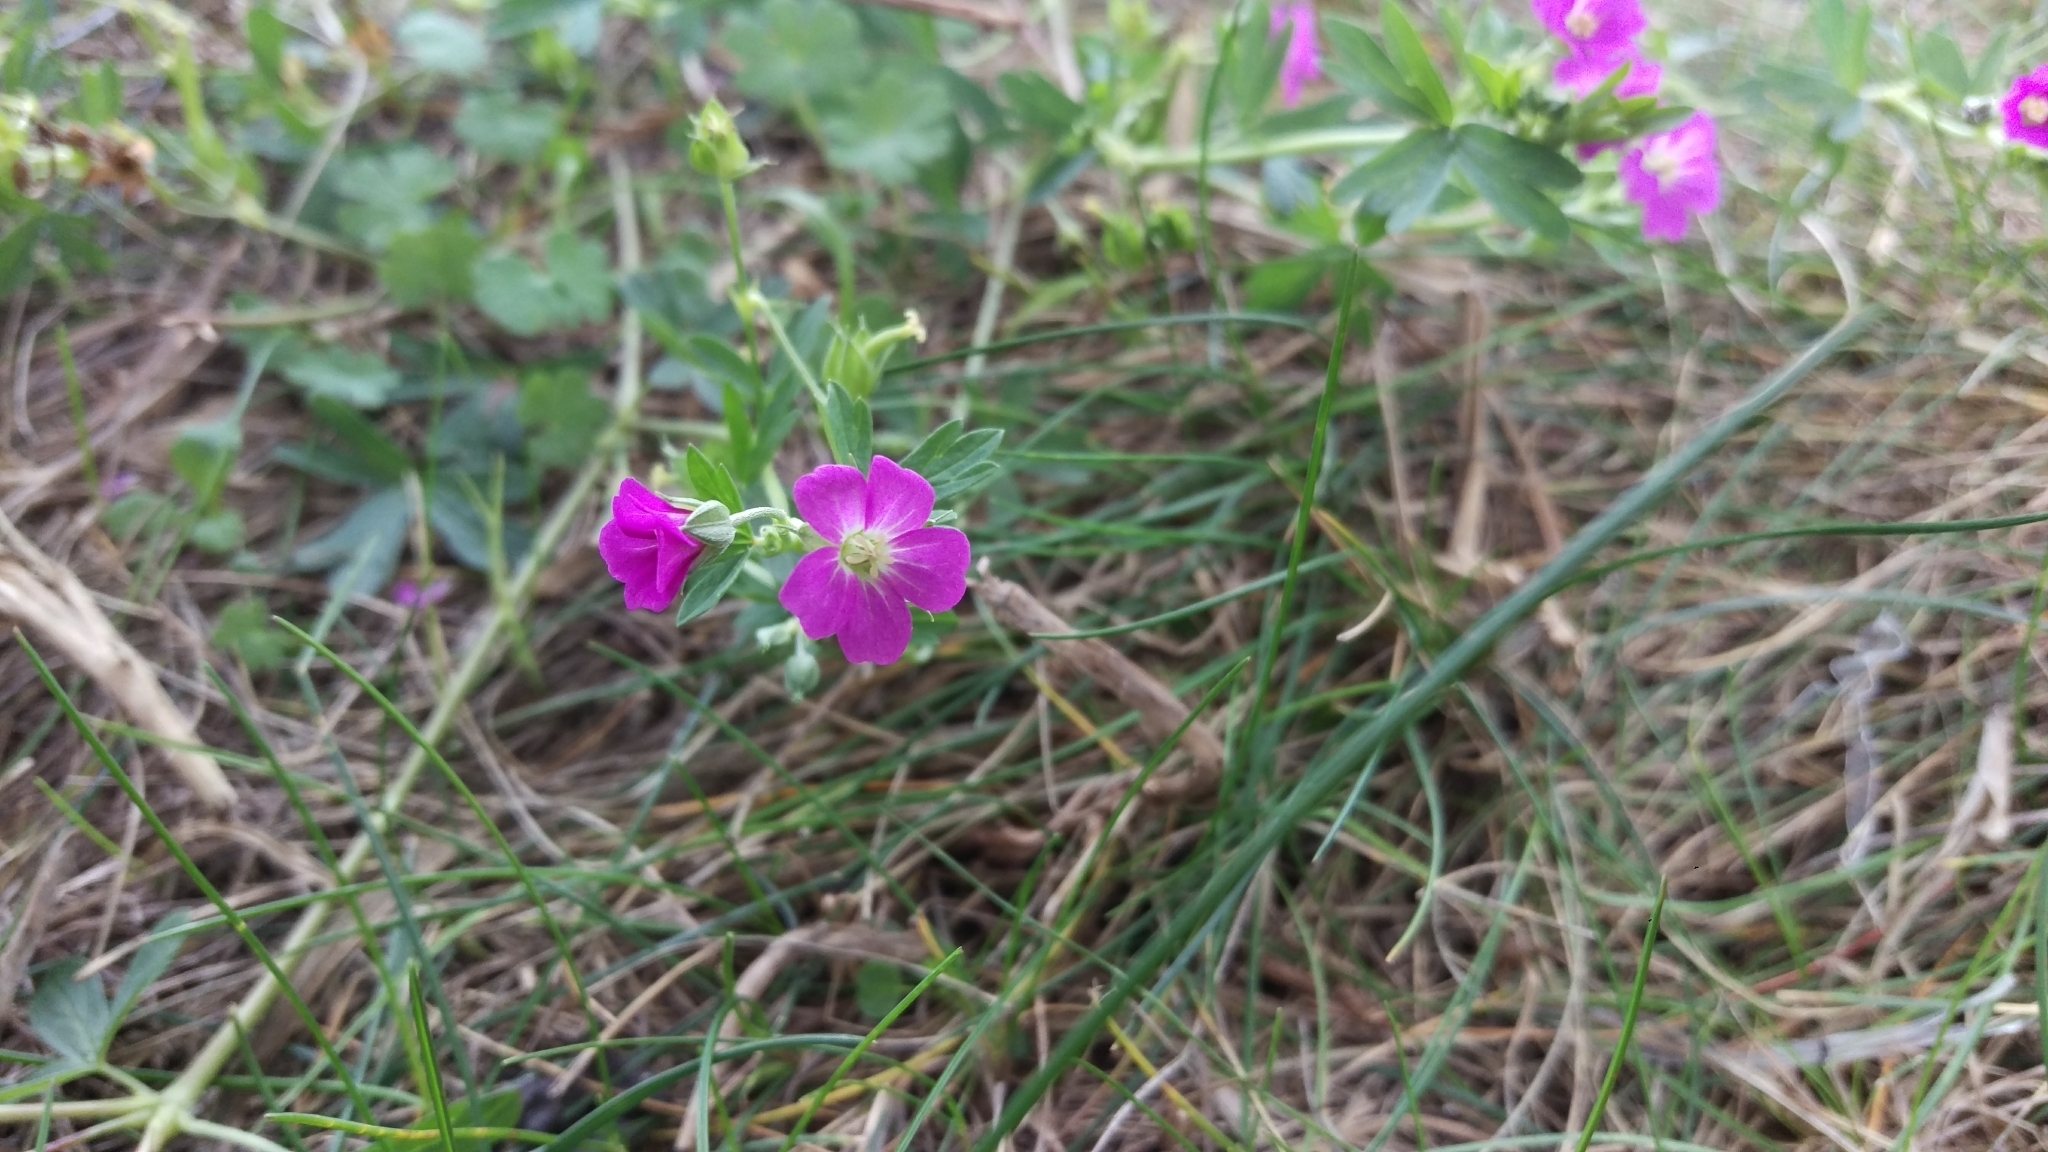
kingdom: Plantae
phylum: Tracheophyta
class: Magnoliopsida
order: Geraniales
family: Geraniaceae
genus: Geranium
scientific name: Geranium core-core
